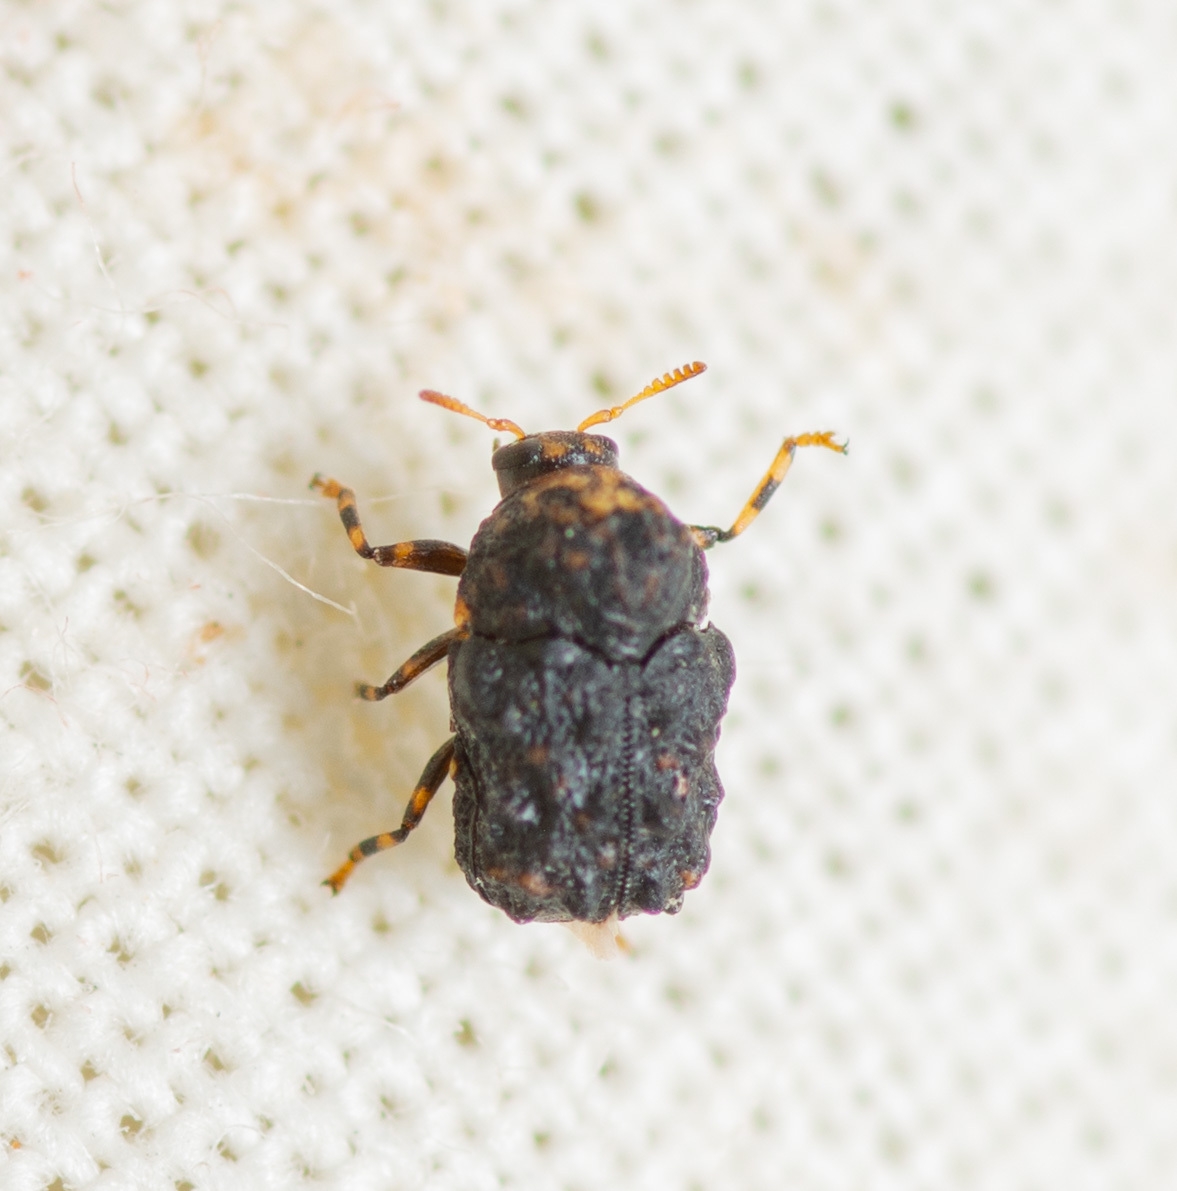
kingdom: Animalia
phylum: Arthropoda
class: Insecta
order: Coleoptera
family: Chrysomelidae
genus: Exema
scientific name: Exema dispar
